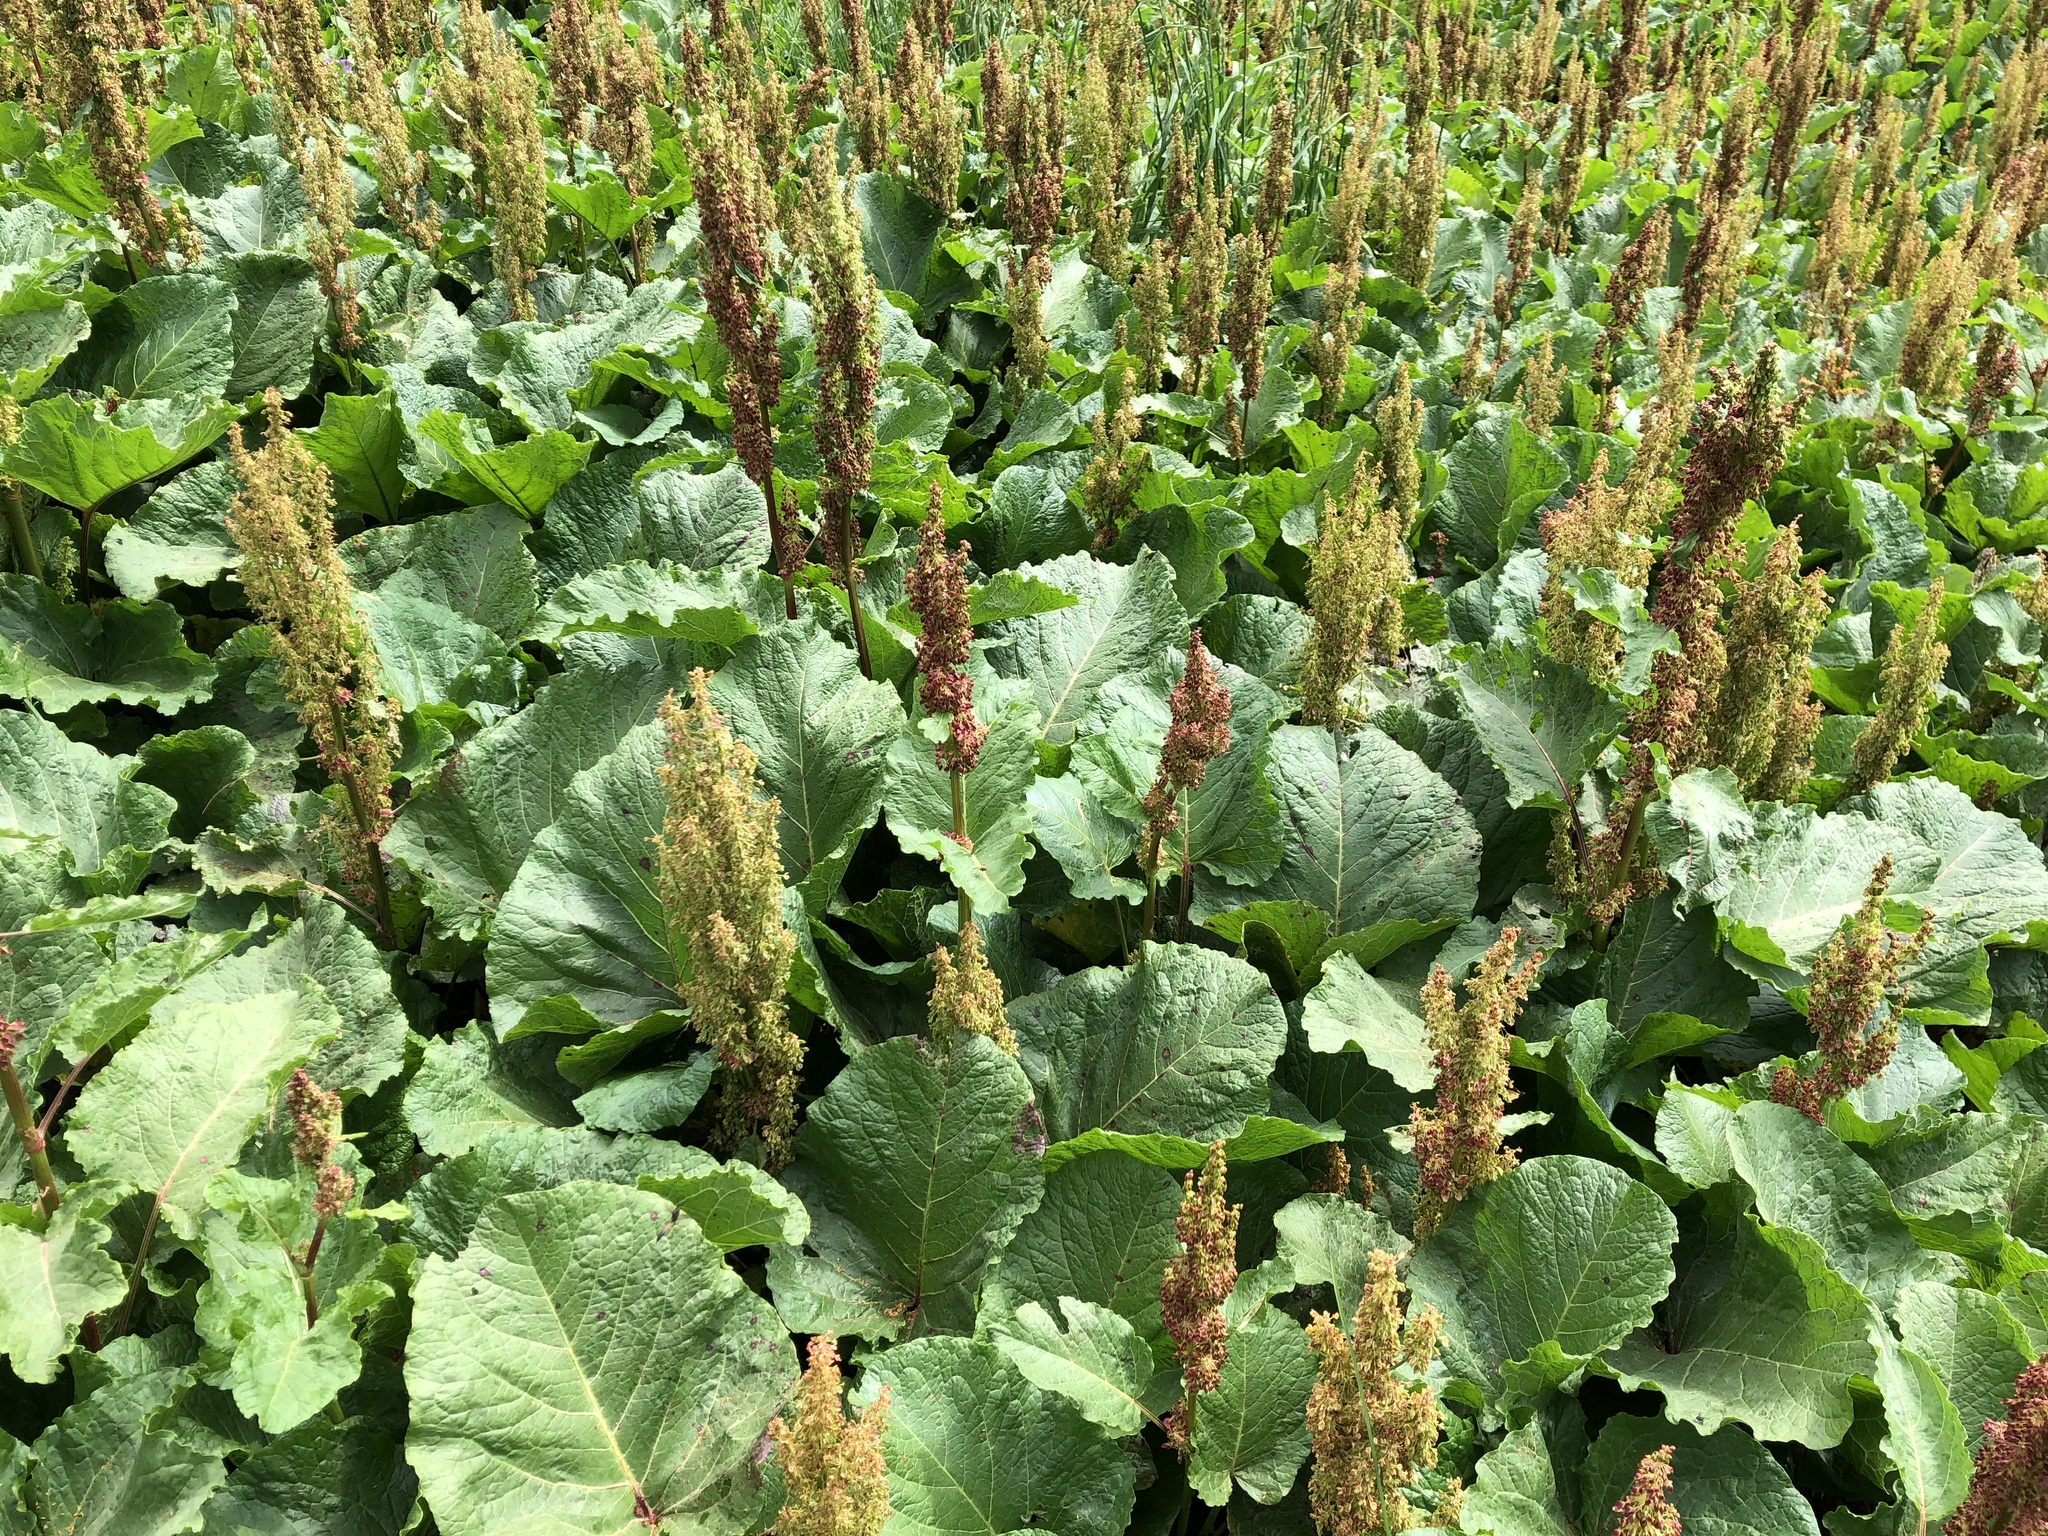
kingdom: Plantae
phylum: Tracheophyta
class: Magnoliopsida
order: Caryophyllales
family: Polygonaceae
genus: Rumex
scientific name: Rumex alpinus
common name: Alpine dock
